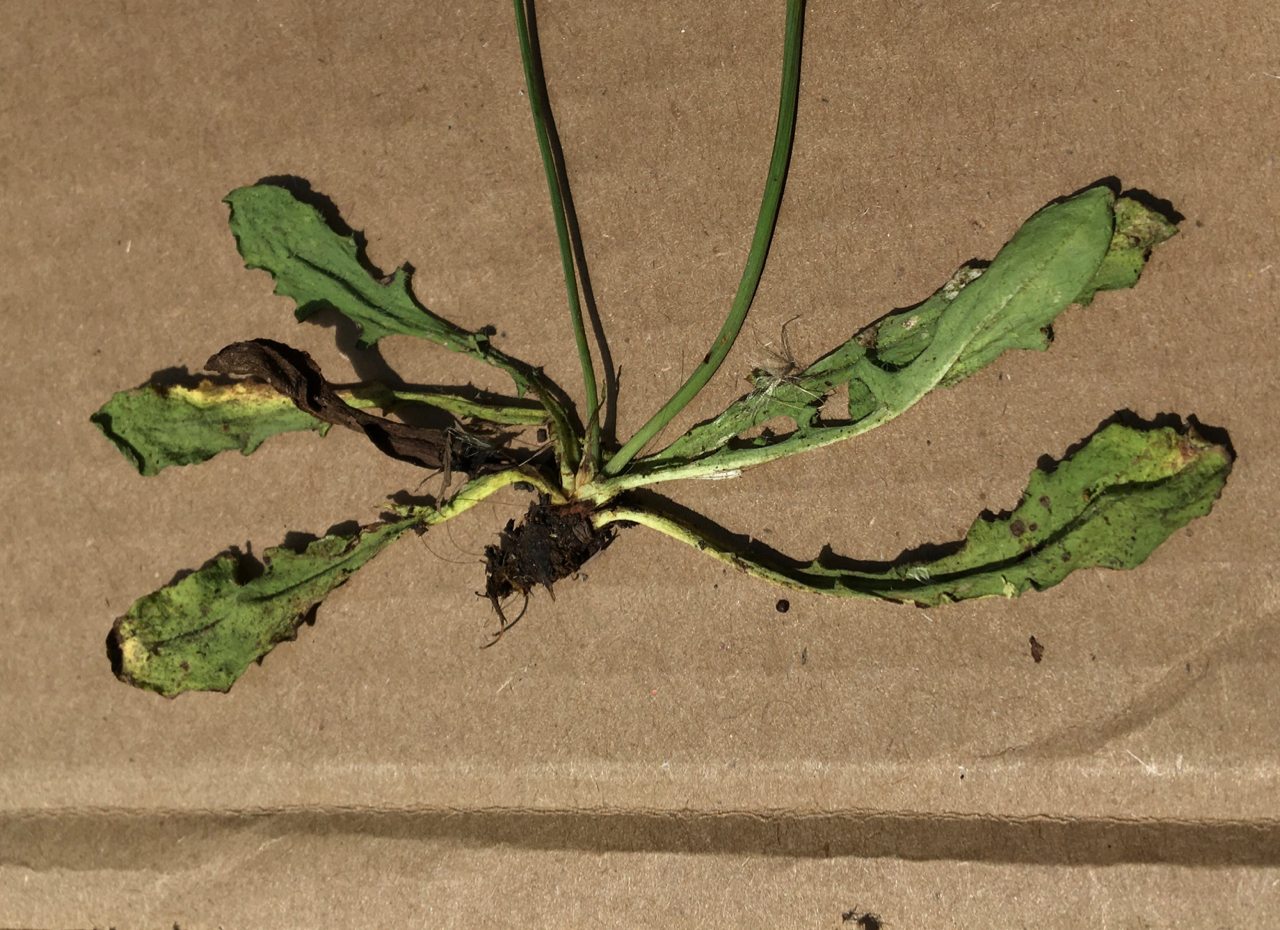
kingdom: Plantae
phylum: Tracheophyta
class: Magnoliopsida
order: Asterales
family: Asteraceae
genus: Hypochaeris
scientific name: Hypochaeris radicata
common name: Flatweed
